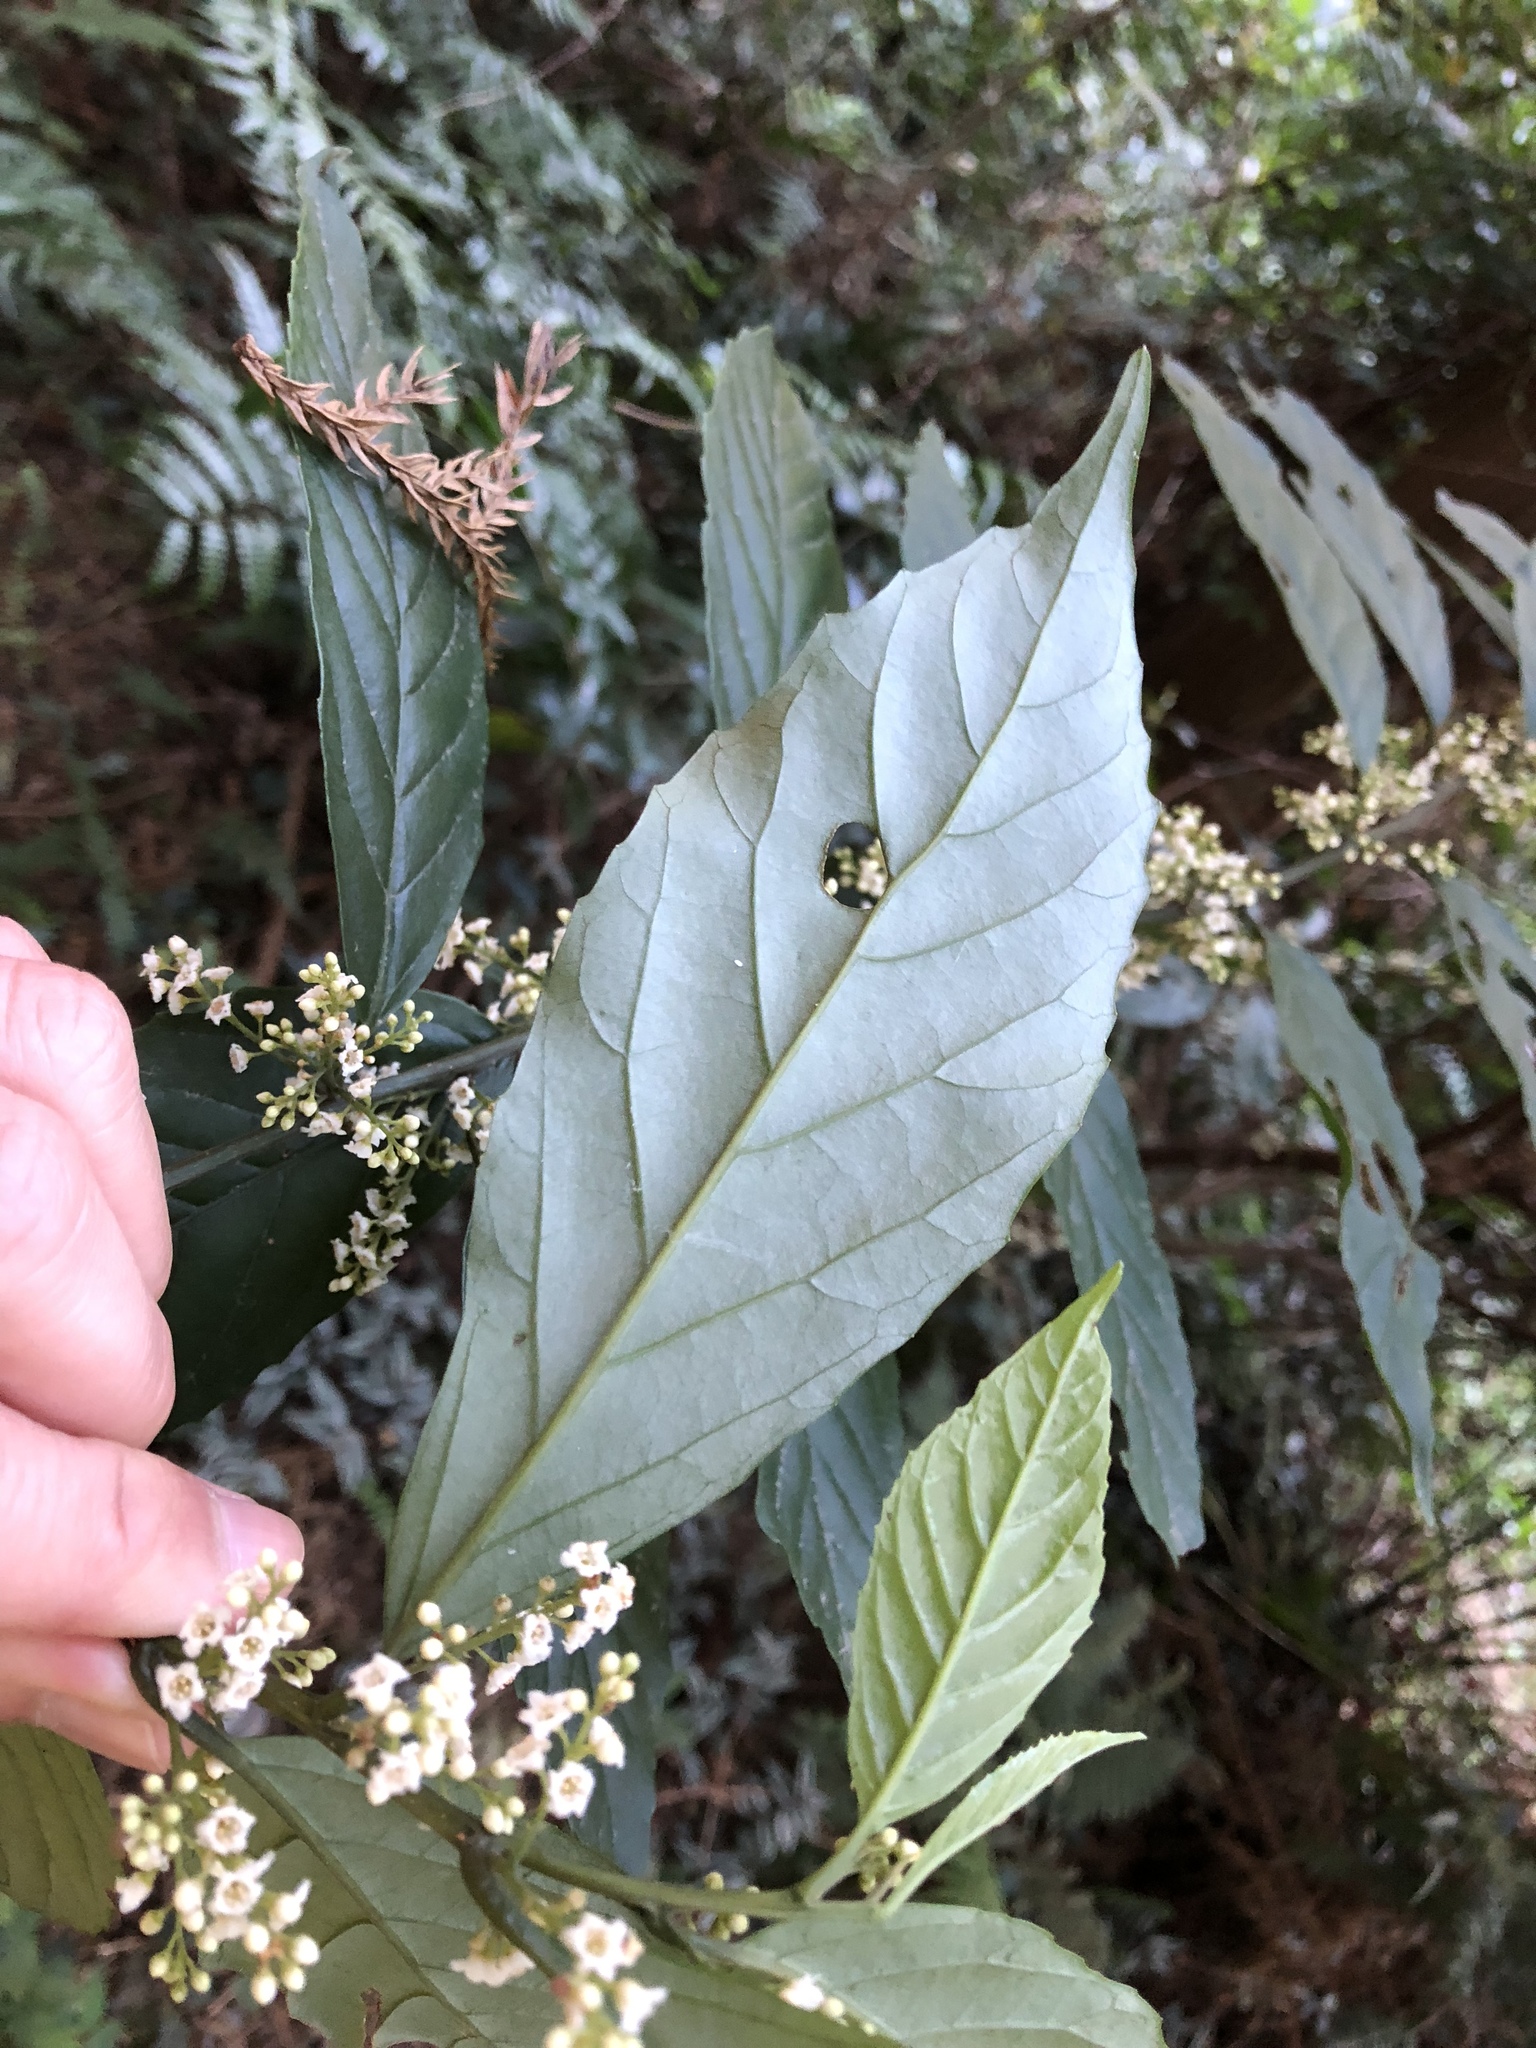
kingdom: Plantae
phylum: Tracheophyta
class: Magnoliopsida
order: Ericales
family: Primulaceae
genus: Maesa
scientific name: Maesa perlaria
